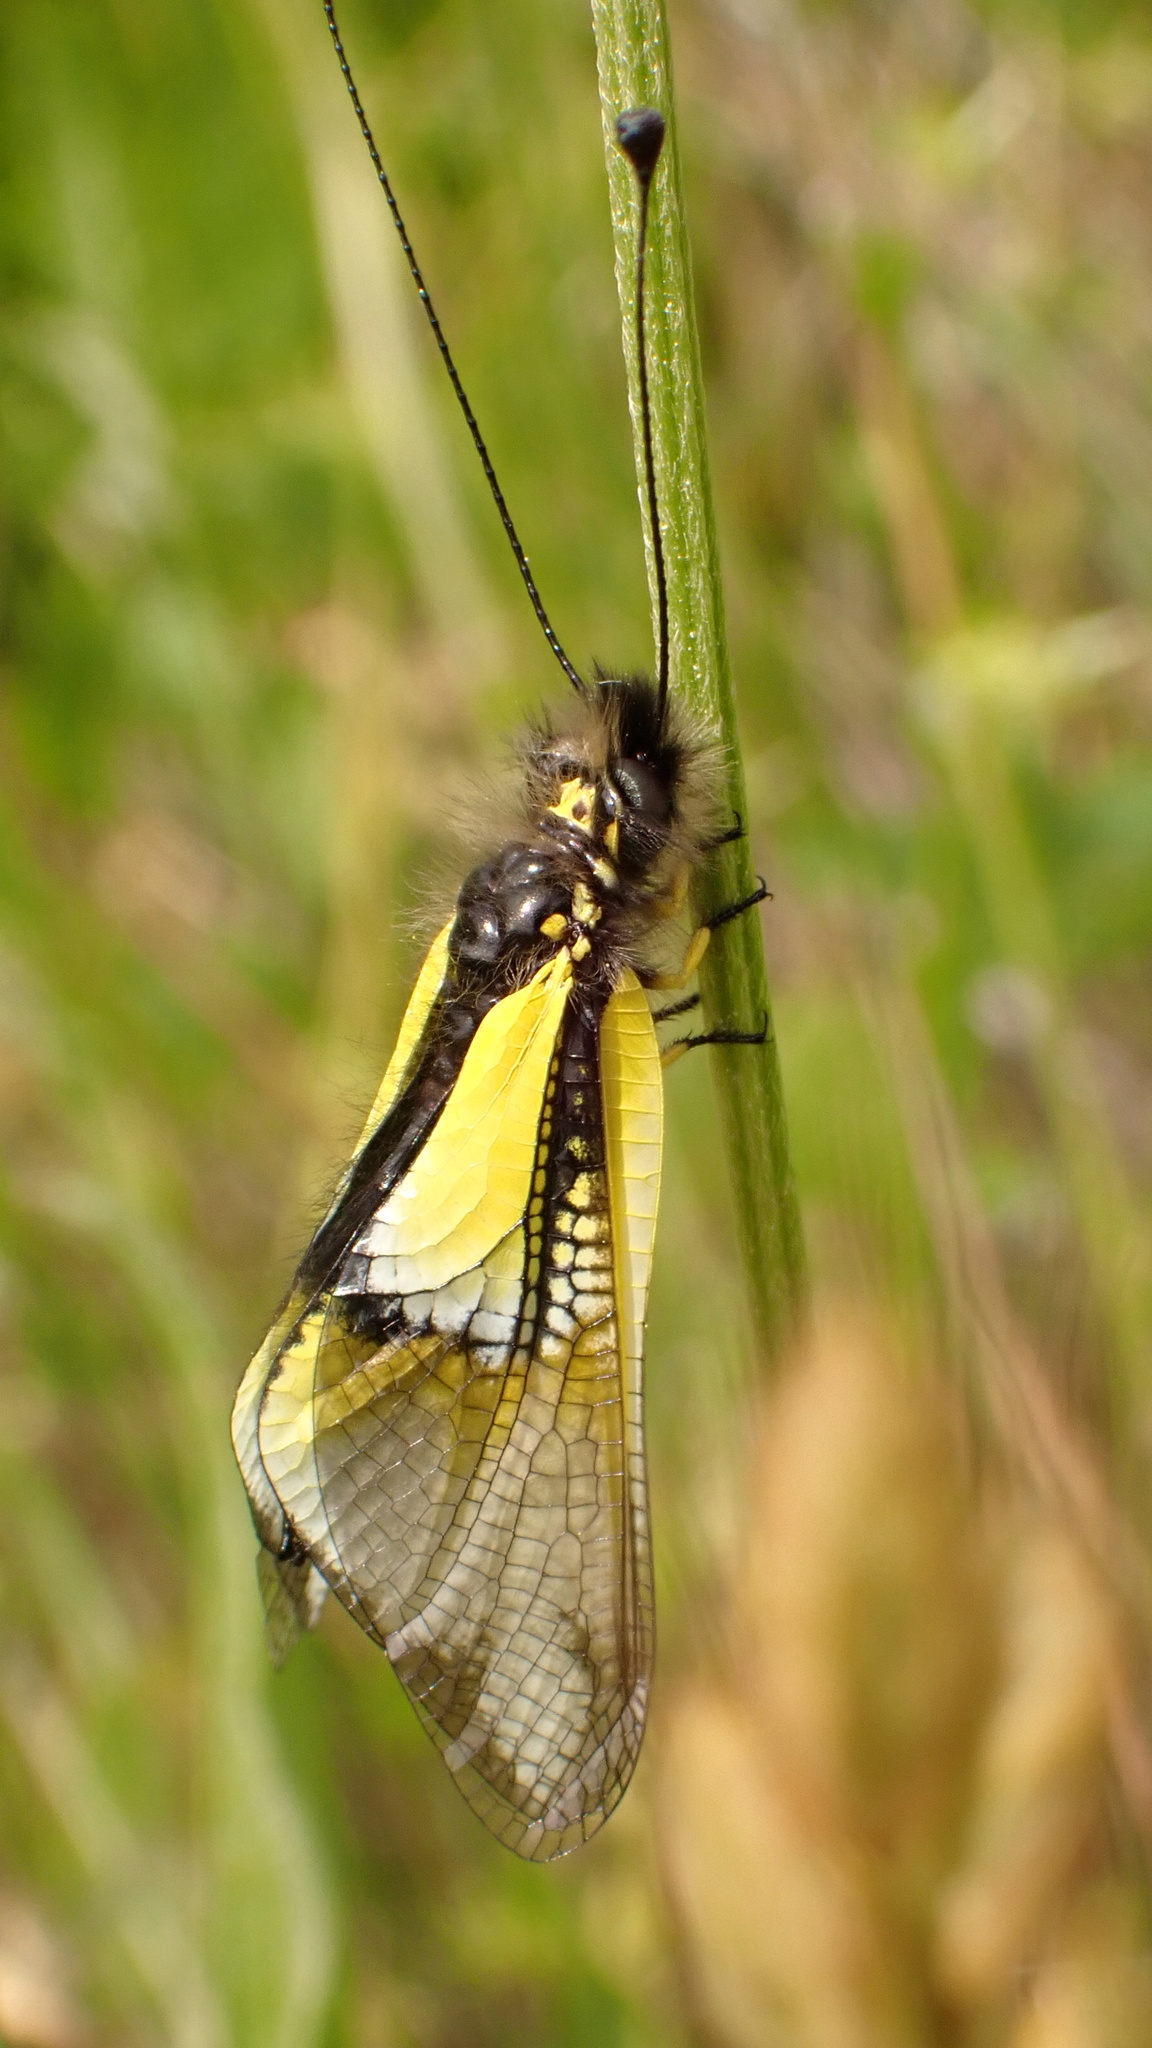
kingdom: Animalia
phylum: Arthropoda
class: Insecta
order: Neuroptera
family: Ascalaphidae
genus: Libelloides
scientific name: Libelloides baeticus
